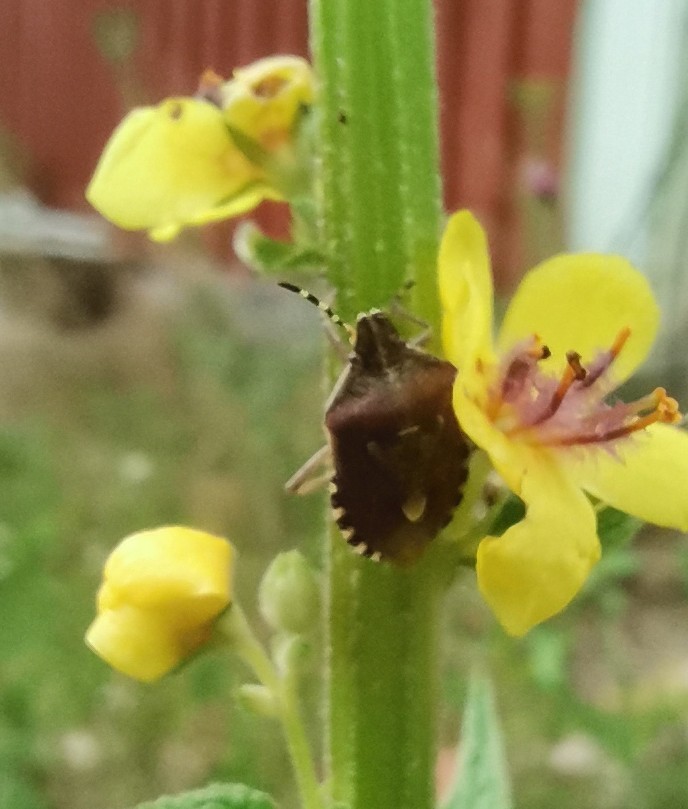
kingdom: Animalia
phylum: Arthropoda
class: Insecta
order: Hemiptera
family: Pentatomidae
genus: Dolycoris
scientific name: Dolycoris baccarum
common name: Sloe bug
